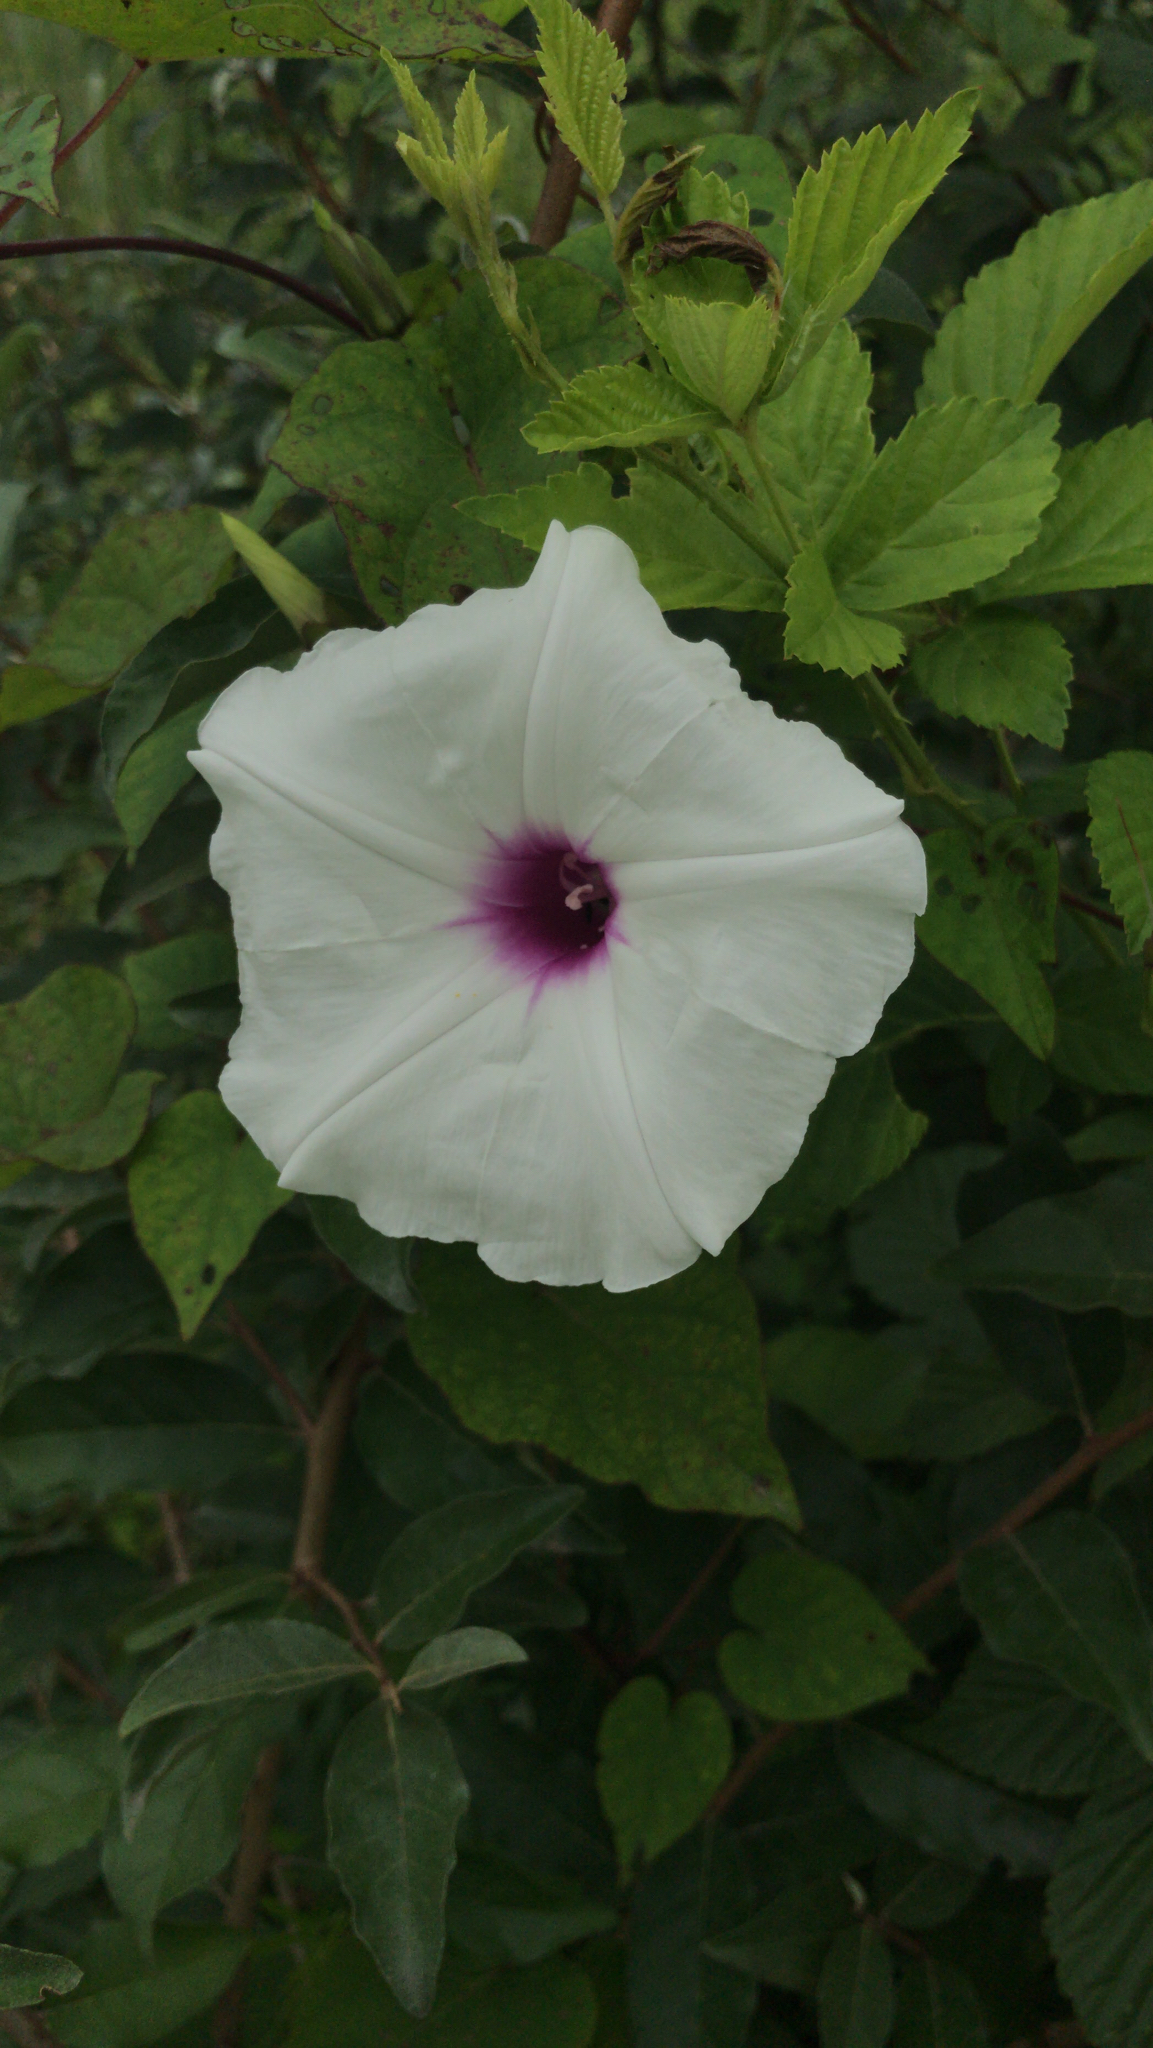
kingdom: Plantae
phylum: Tracheophyta
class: Magnoliopsida
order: Solanales
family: Convolvulaceae
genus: Ipomoea
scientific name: Ipomoea pandurata
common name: Man-of-the-earth
